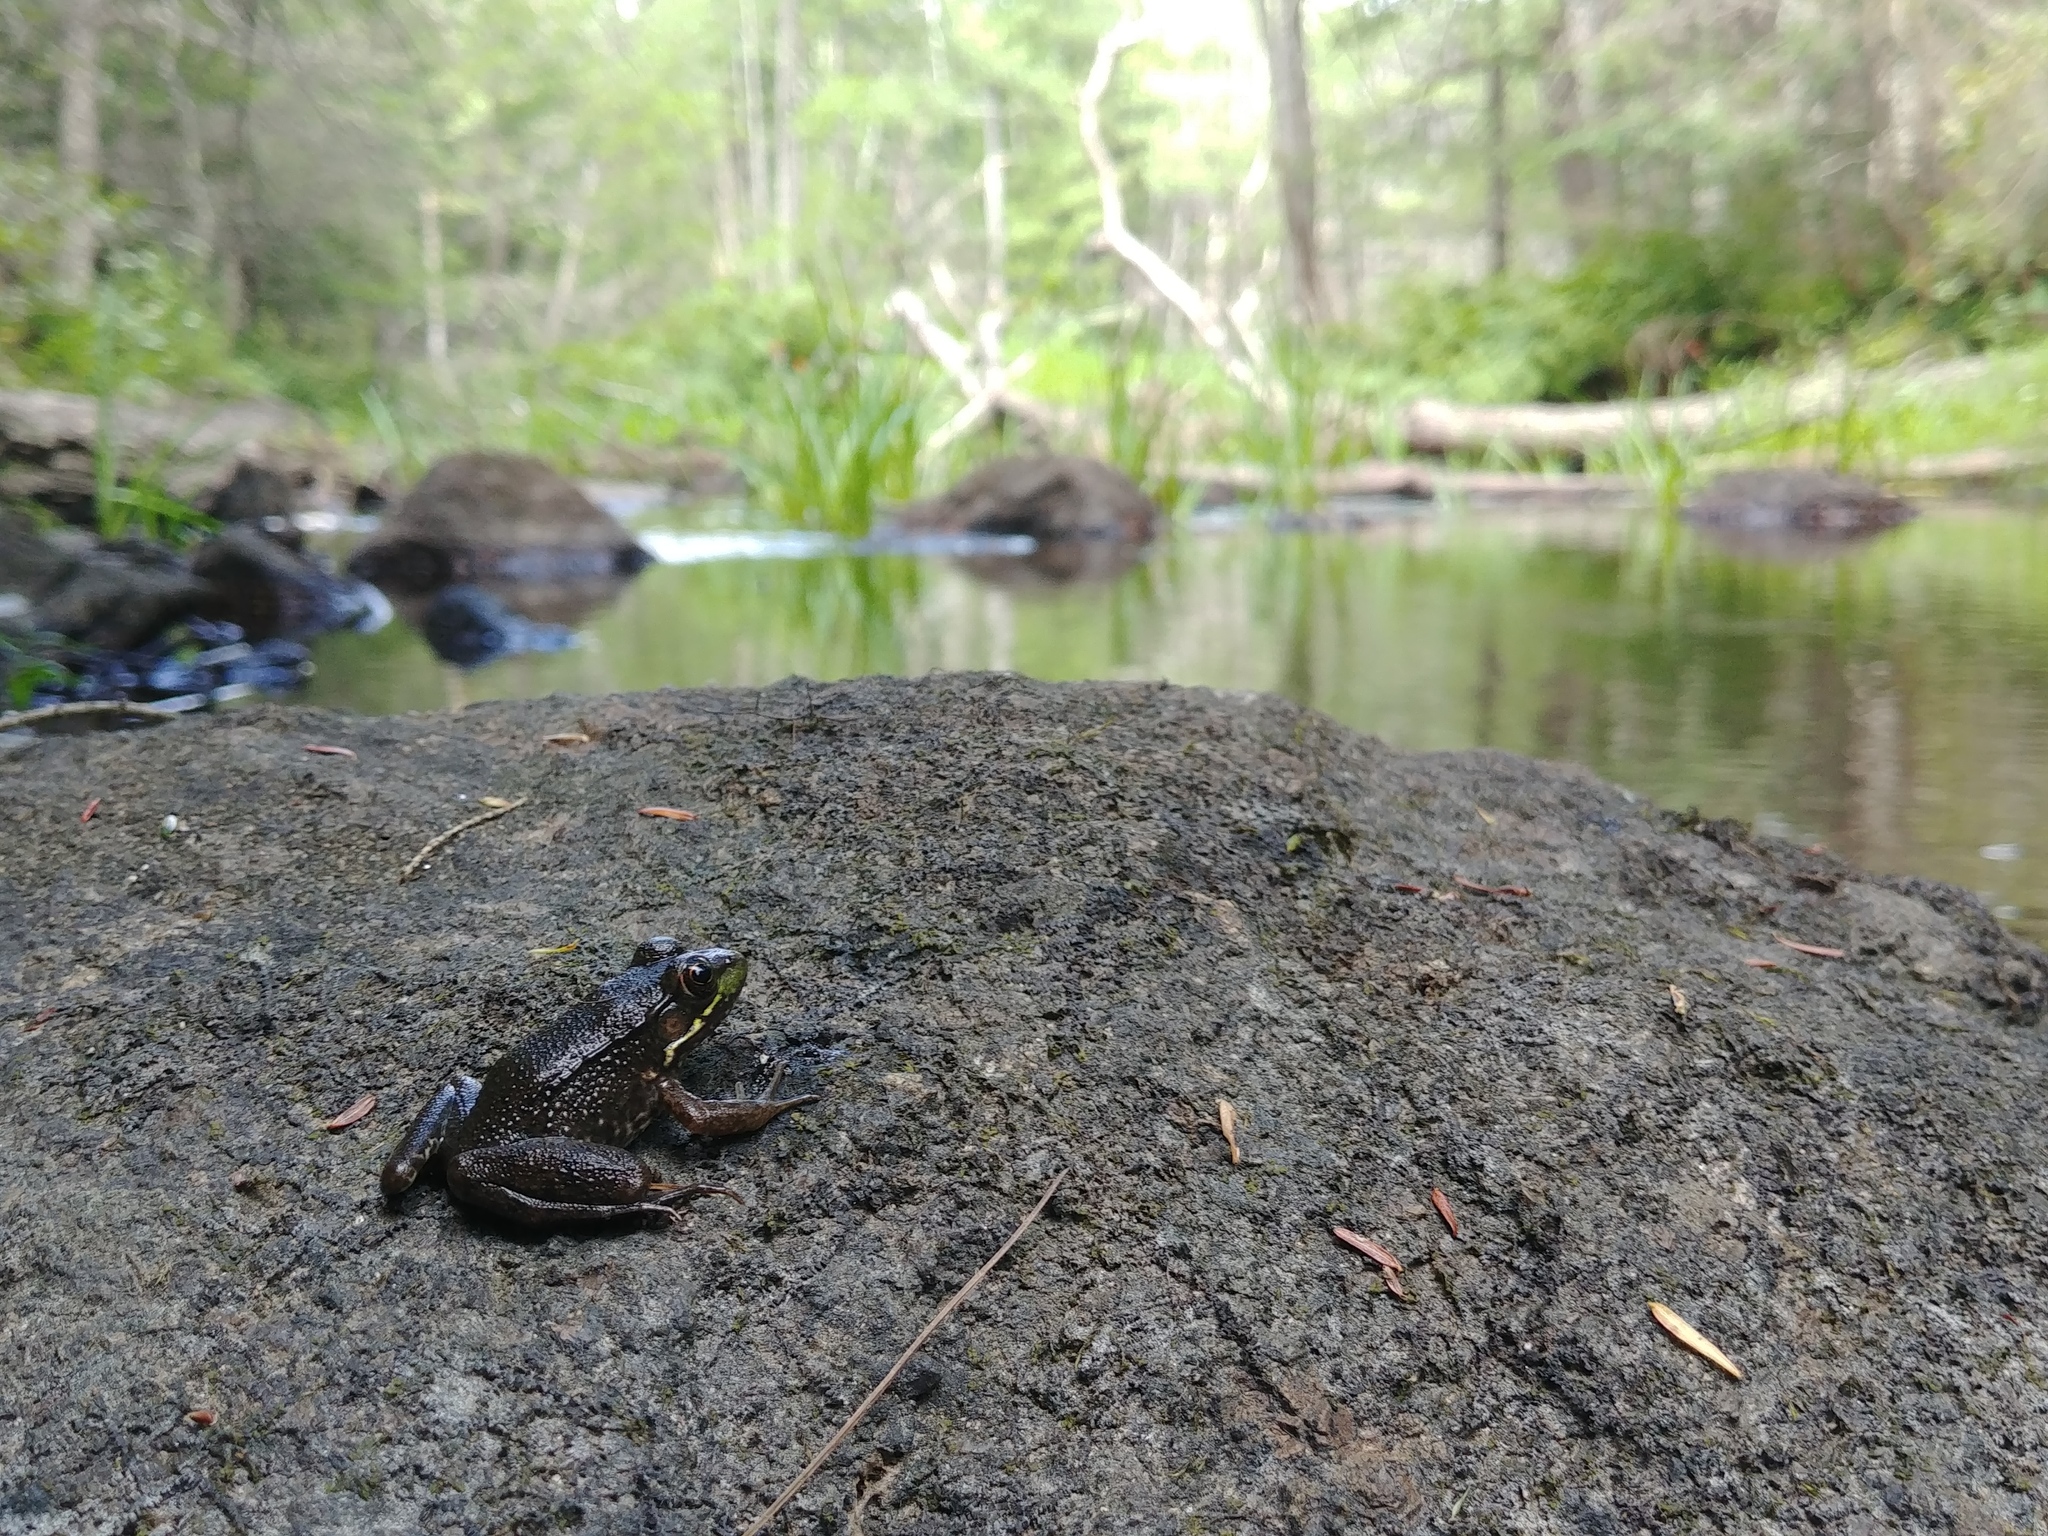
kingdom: Animalia
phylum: Chordata
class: Amphibia
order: Anura
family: Ranidae
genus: Lithobates
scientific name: Lithobates clamitans
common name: Green frog
